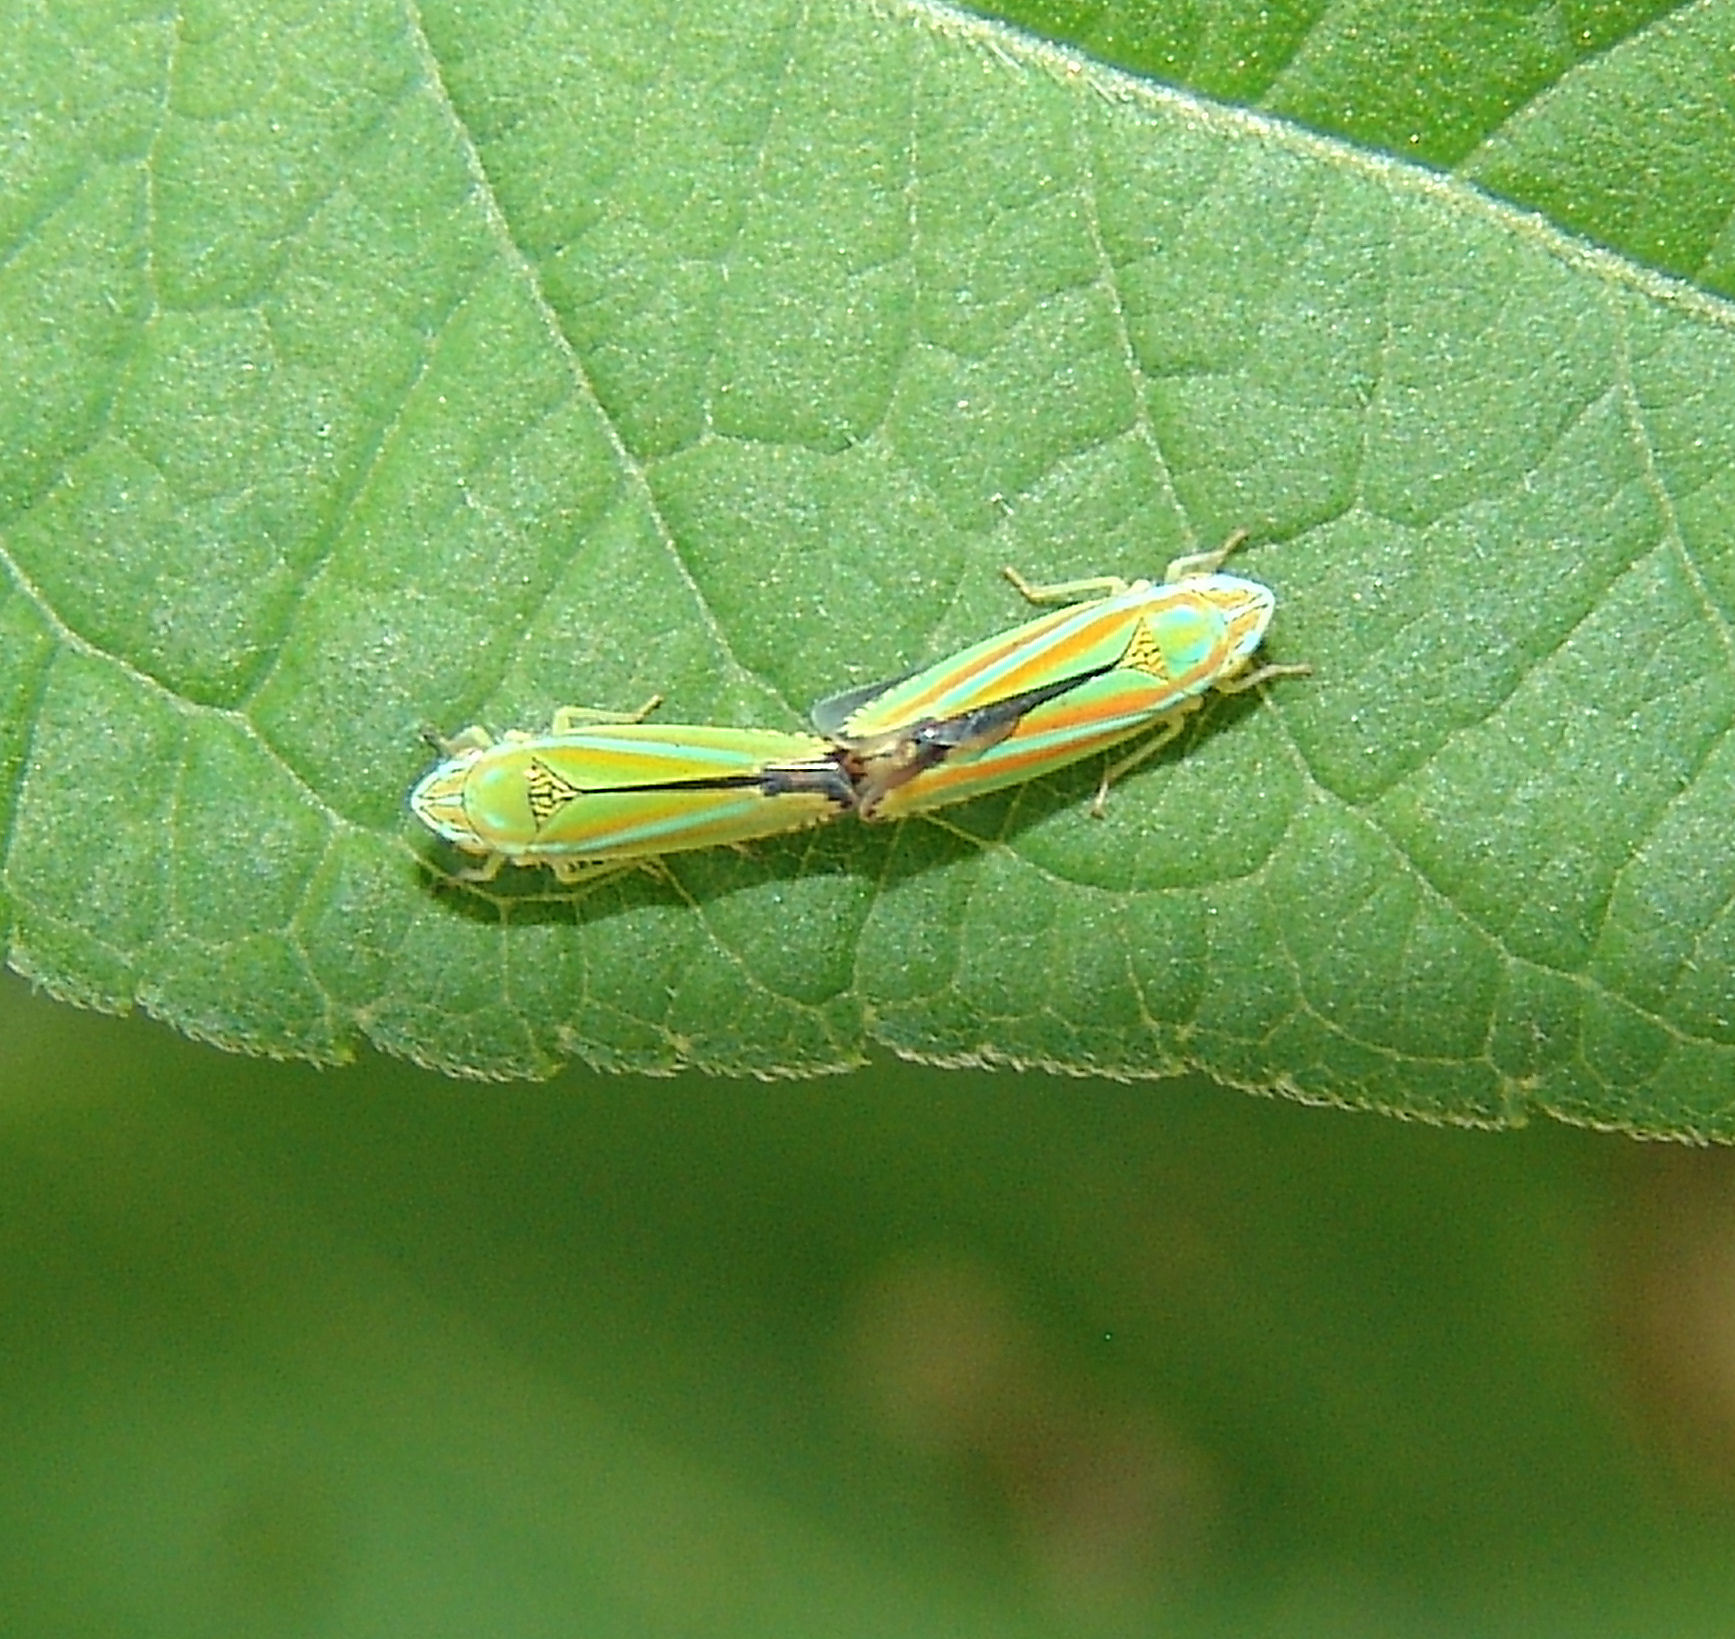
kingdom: Animalia
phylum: Arthropoda
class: Insecta
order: Hemiptera
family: Cicadellidae
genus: Graphocephala
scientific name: Graphocephala versuta
